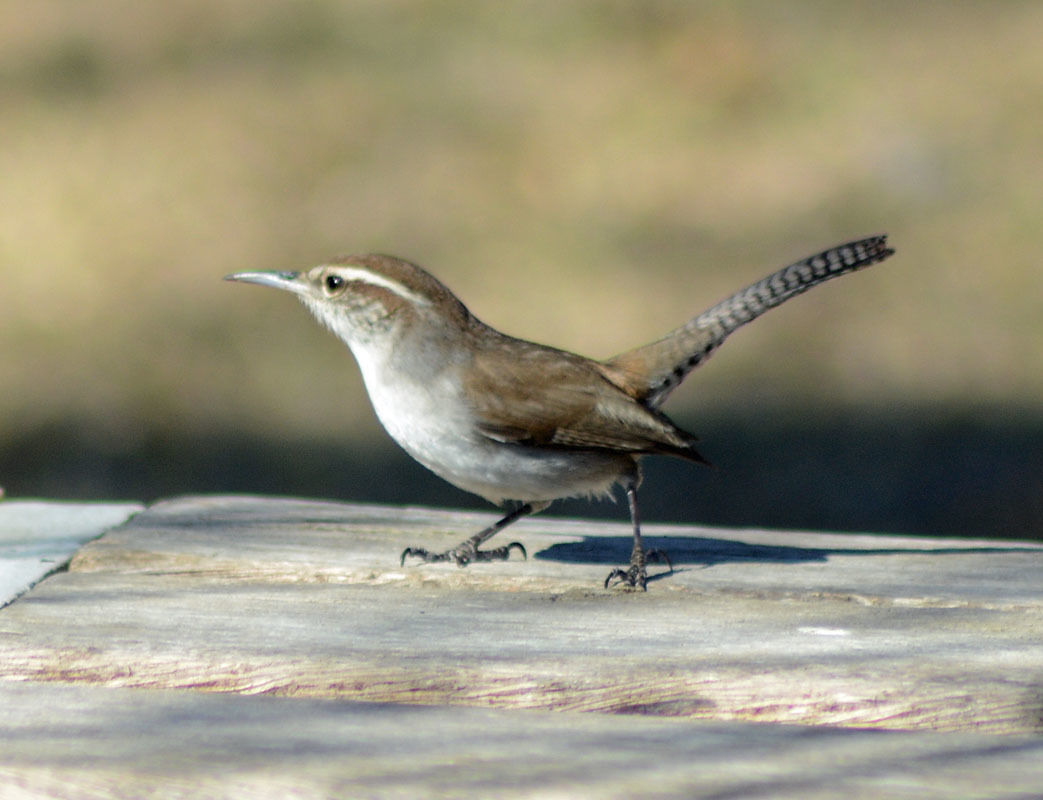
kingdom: Animalia
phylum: Chordata
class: Aves
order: Passeriformes
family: Troglodytidae
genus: Thryomanes
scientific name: Thryomanes bewickii
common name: Bewick's wren
